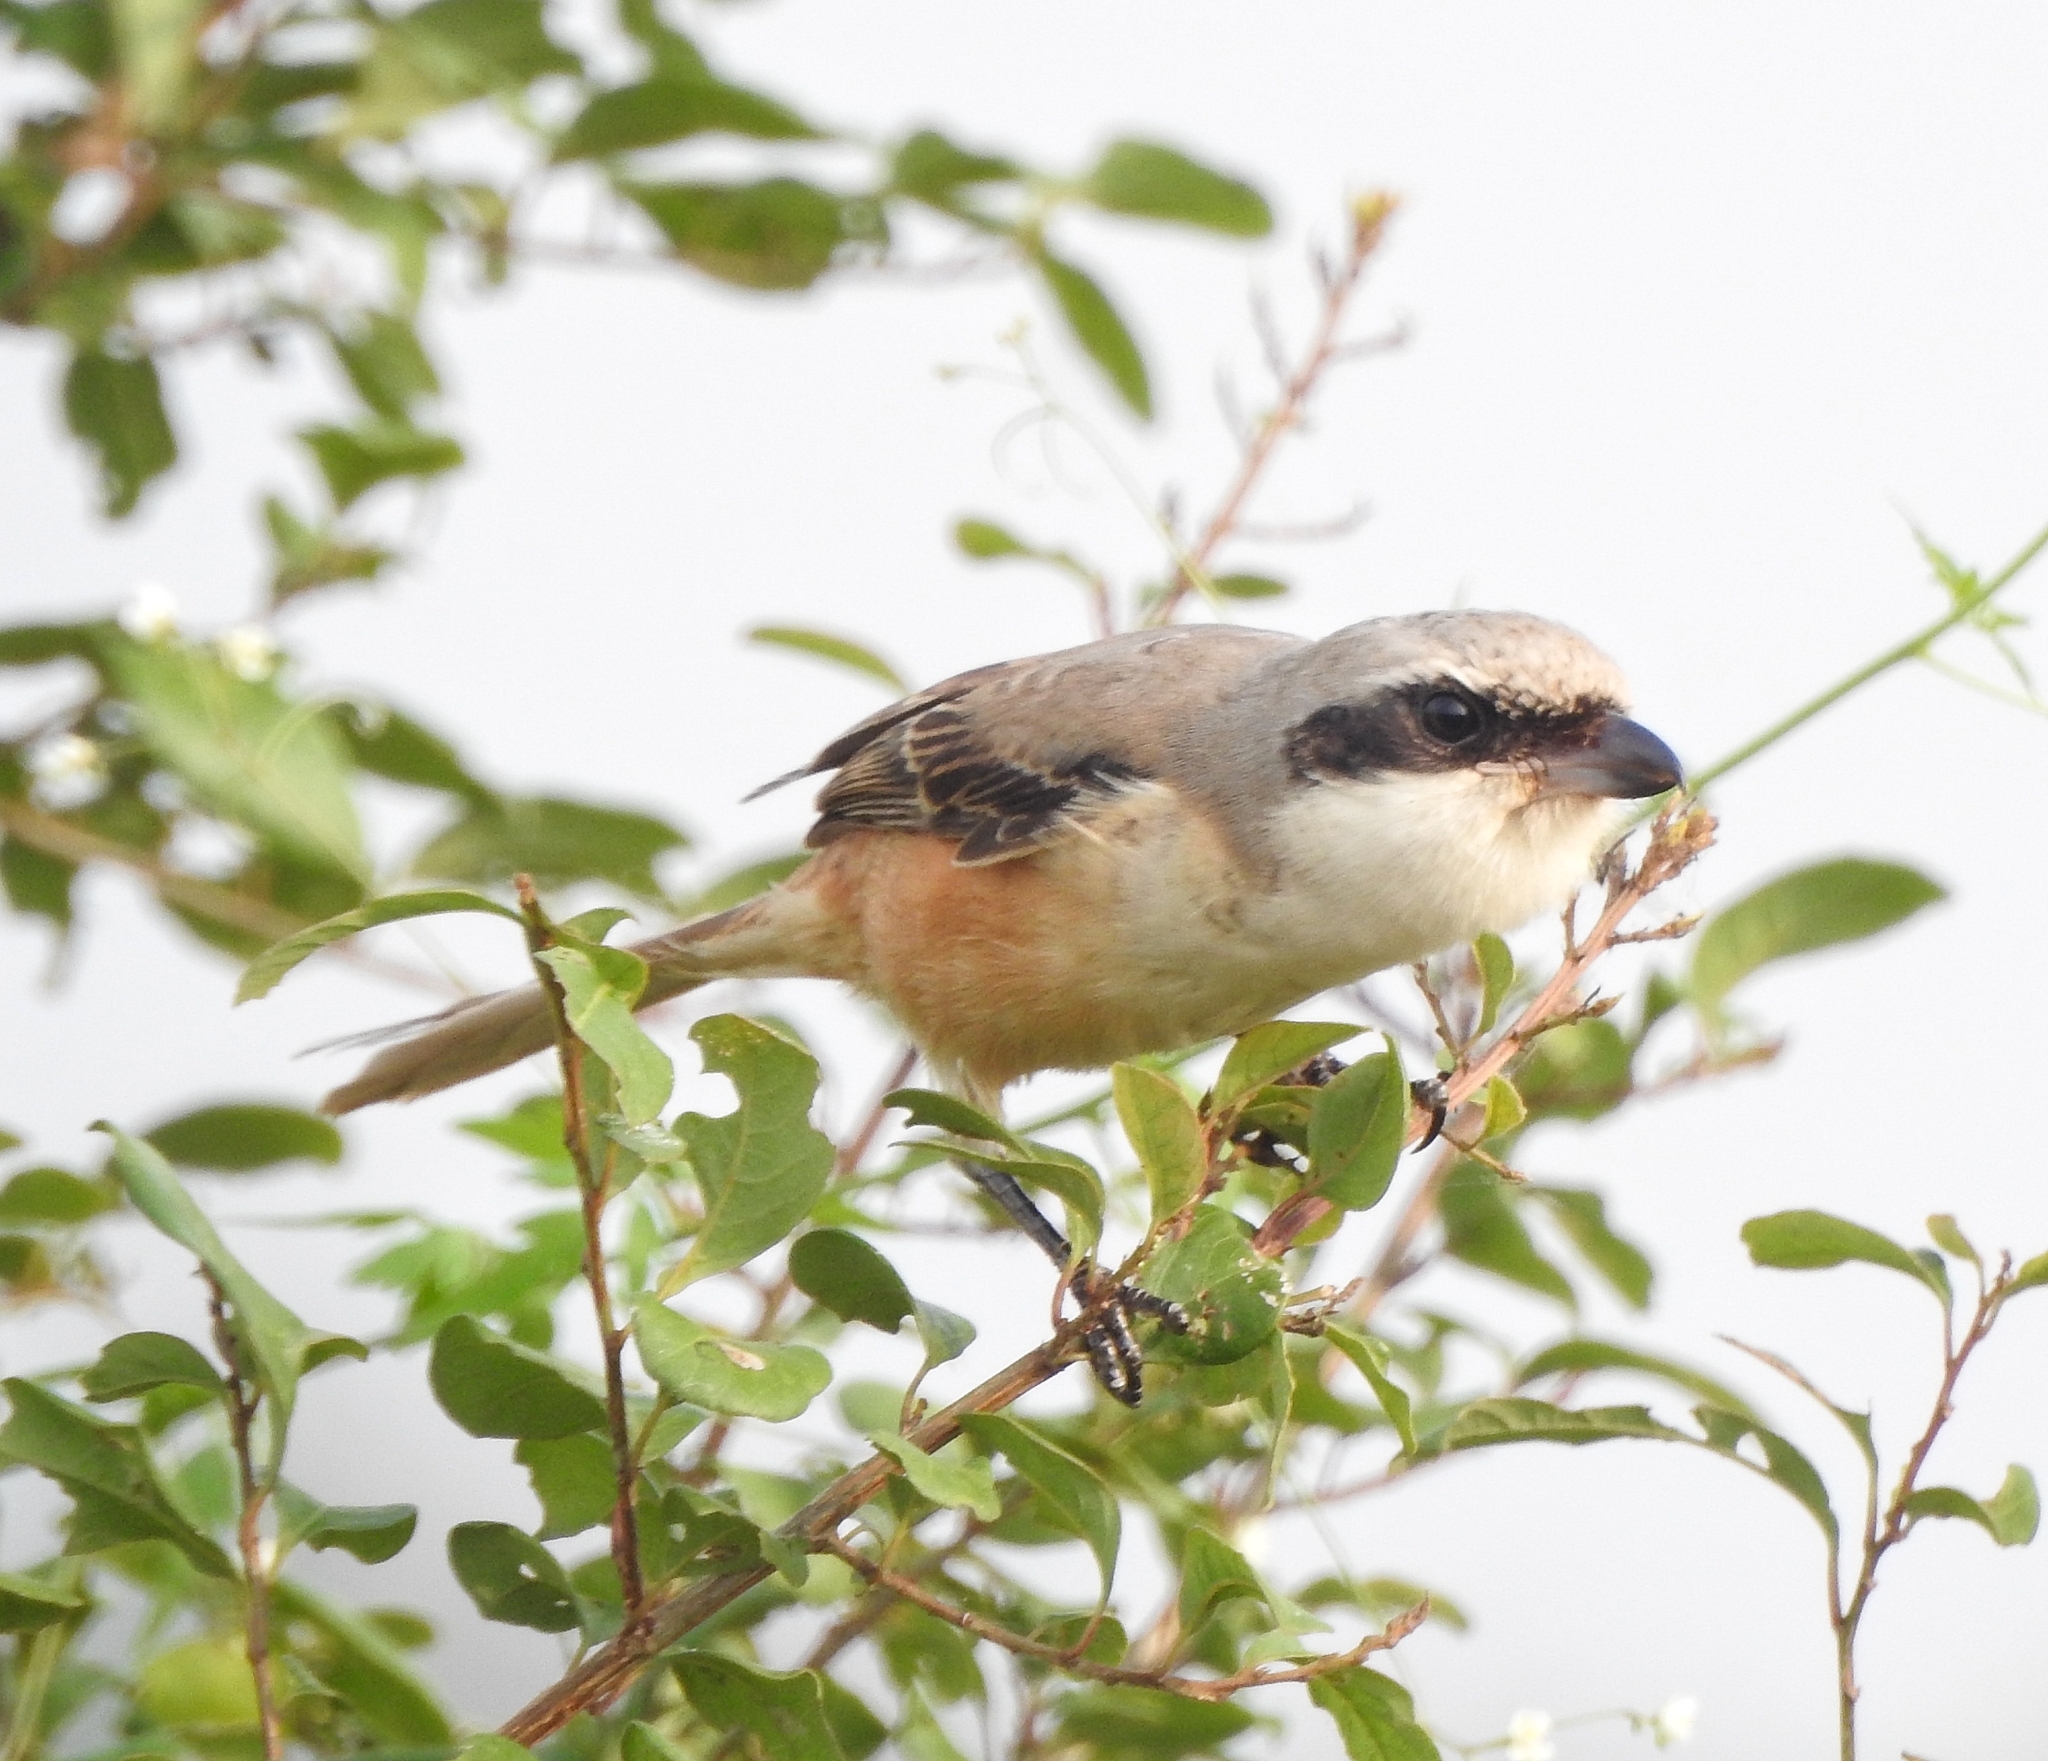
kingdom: Animalia
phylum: Chordata
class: Aves
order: Passeriformes
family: Laniidae
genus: Lanius
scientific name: Lanius schach
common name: Long-tailed shrike
